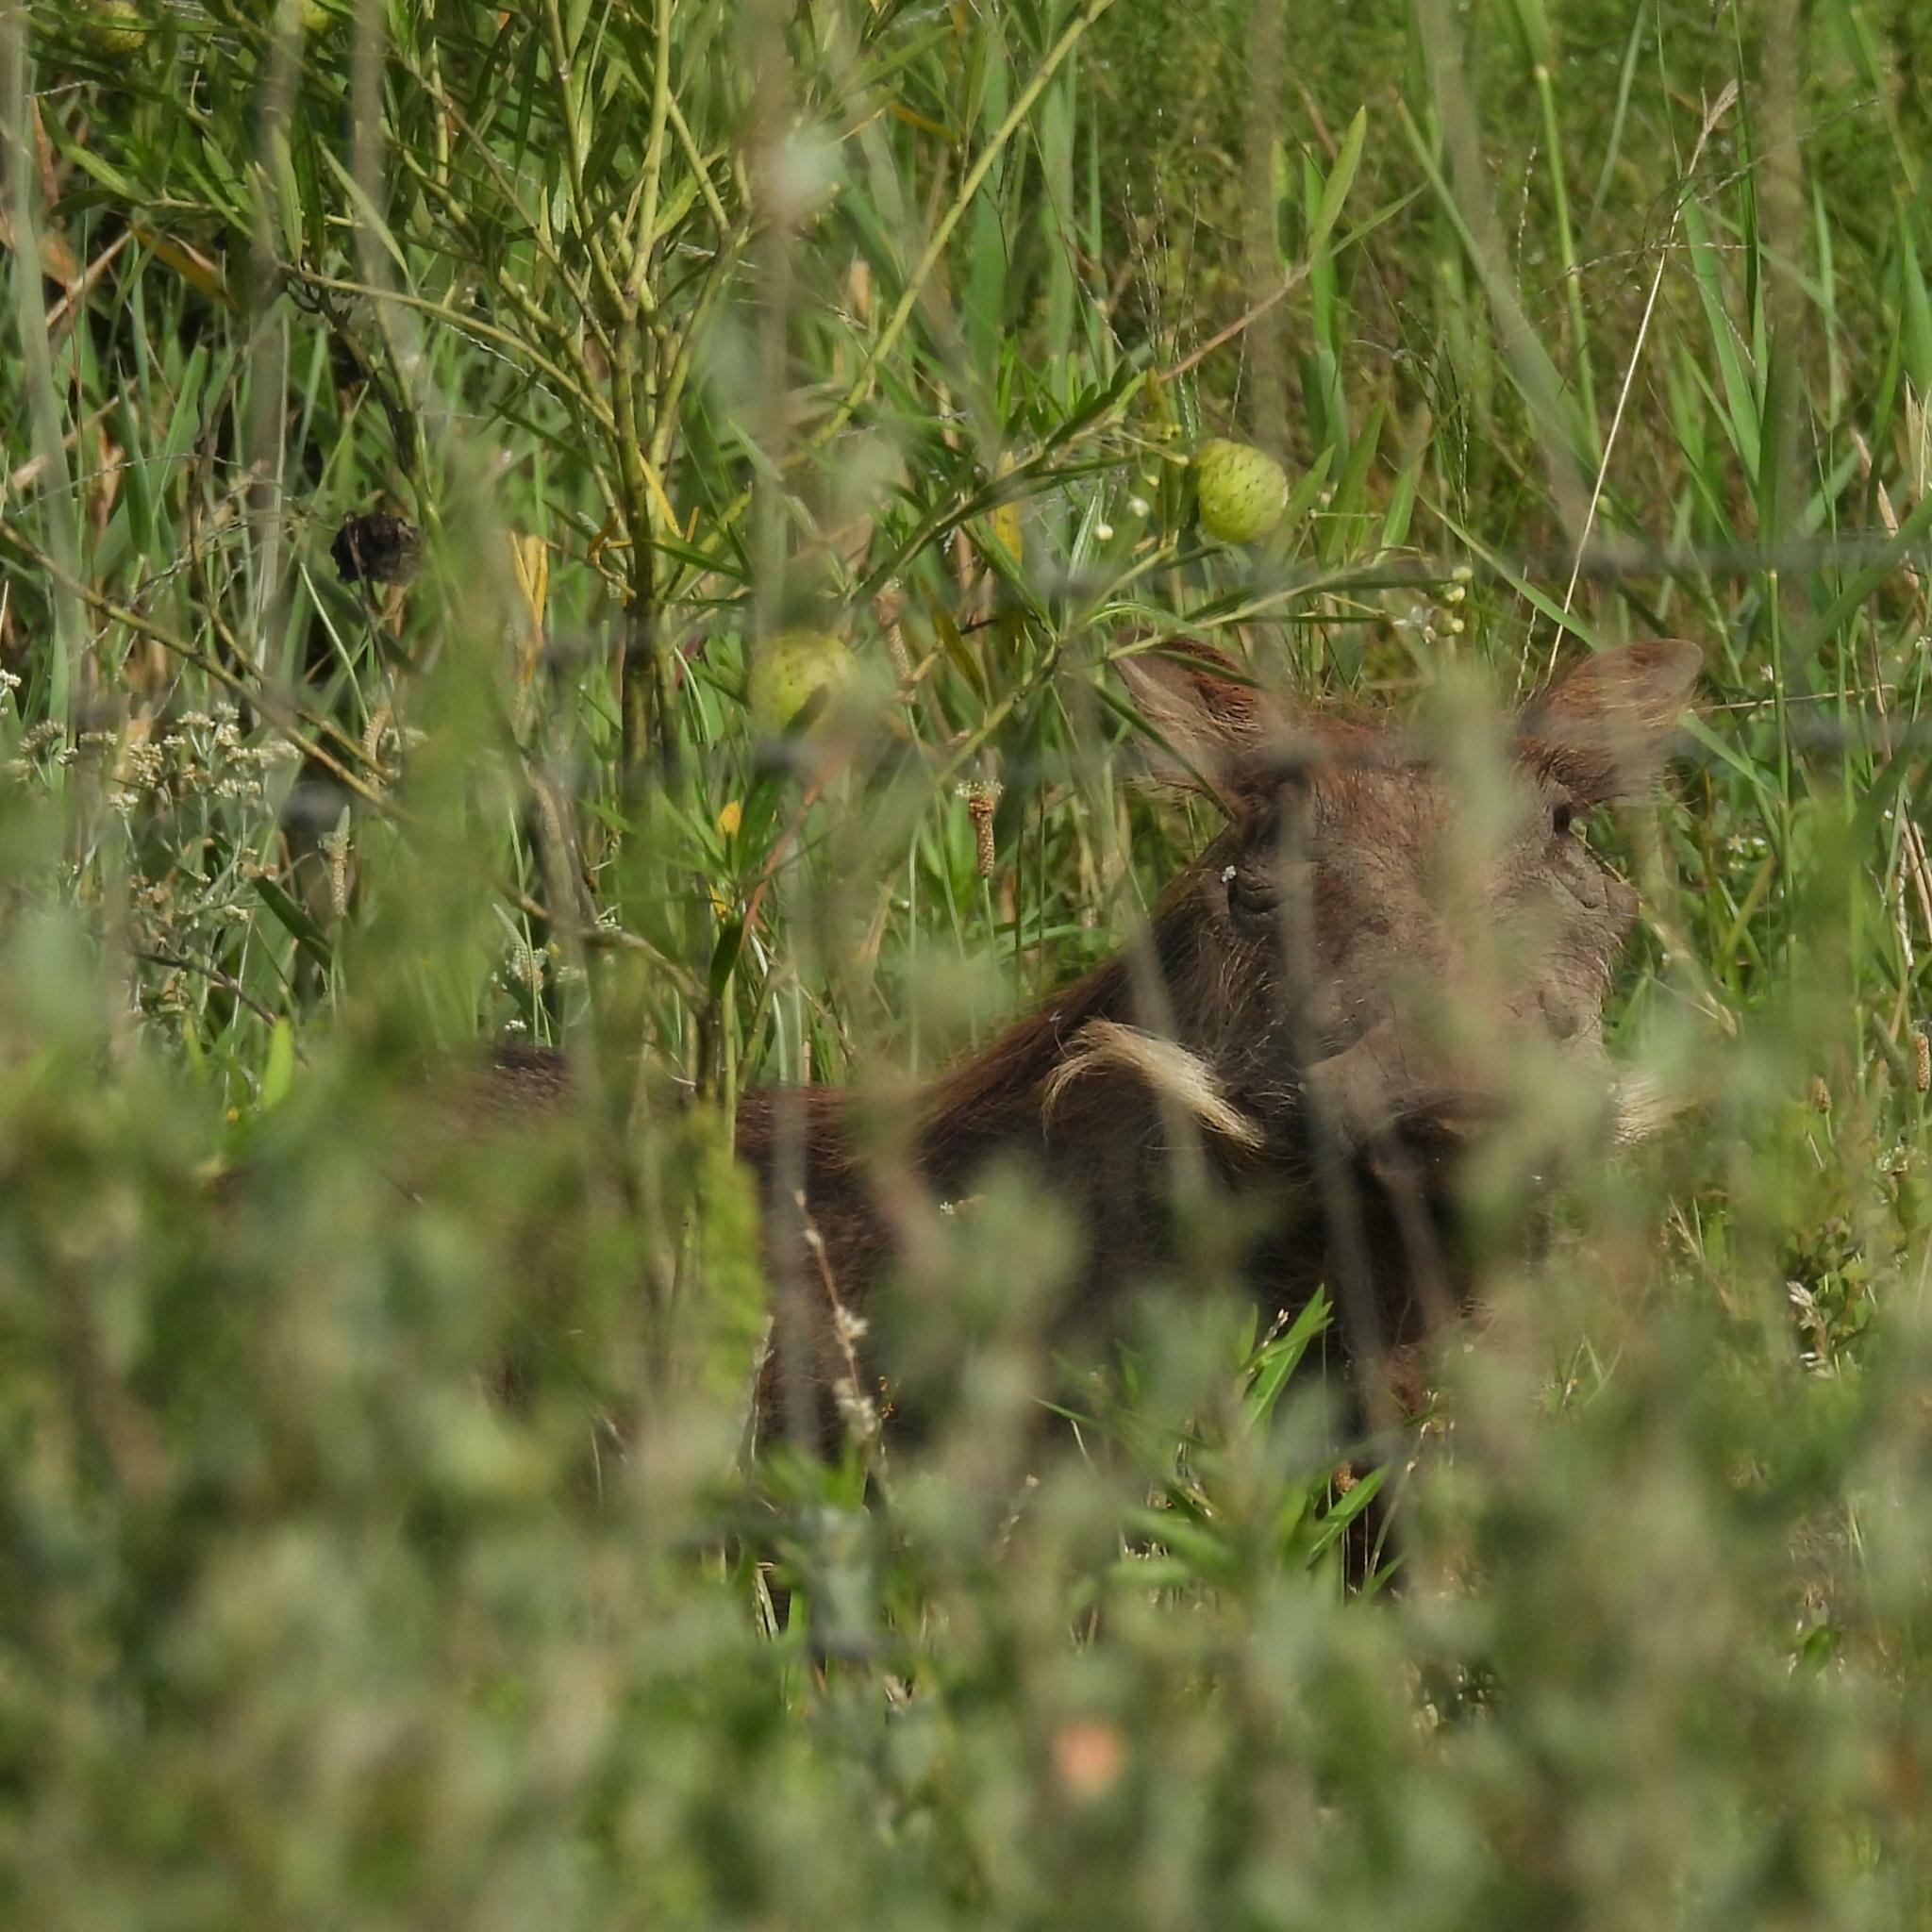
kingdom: Animalia
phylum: Chordata
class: Mammalia
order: Artiodactyla
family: Suidae
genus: Phacochoerus
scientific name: Phacochoerus africanus
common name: Common warthog
